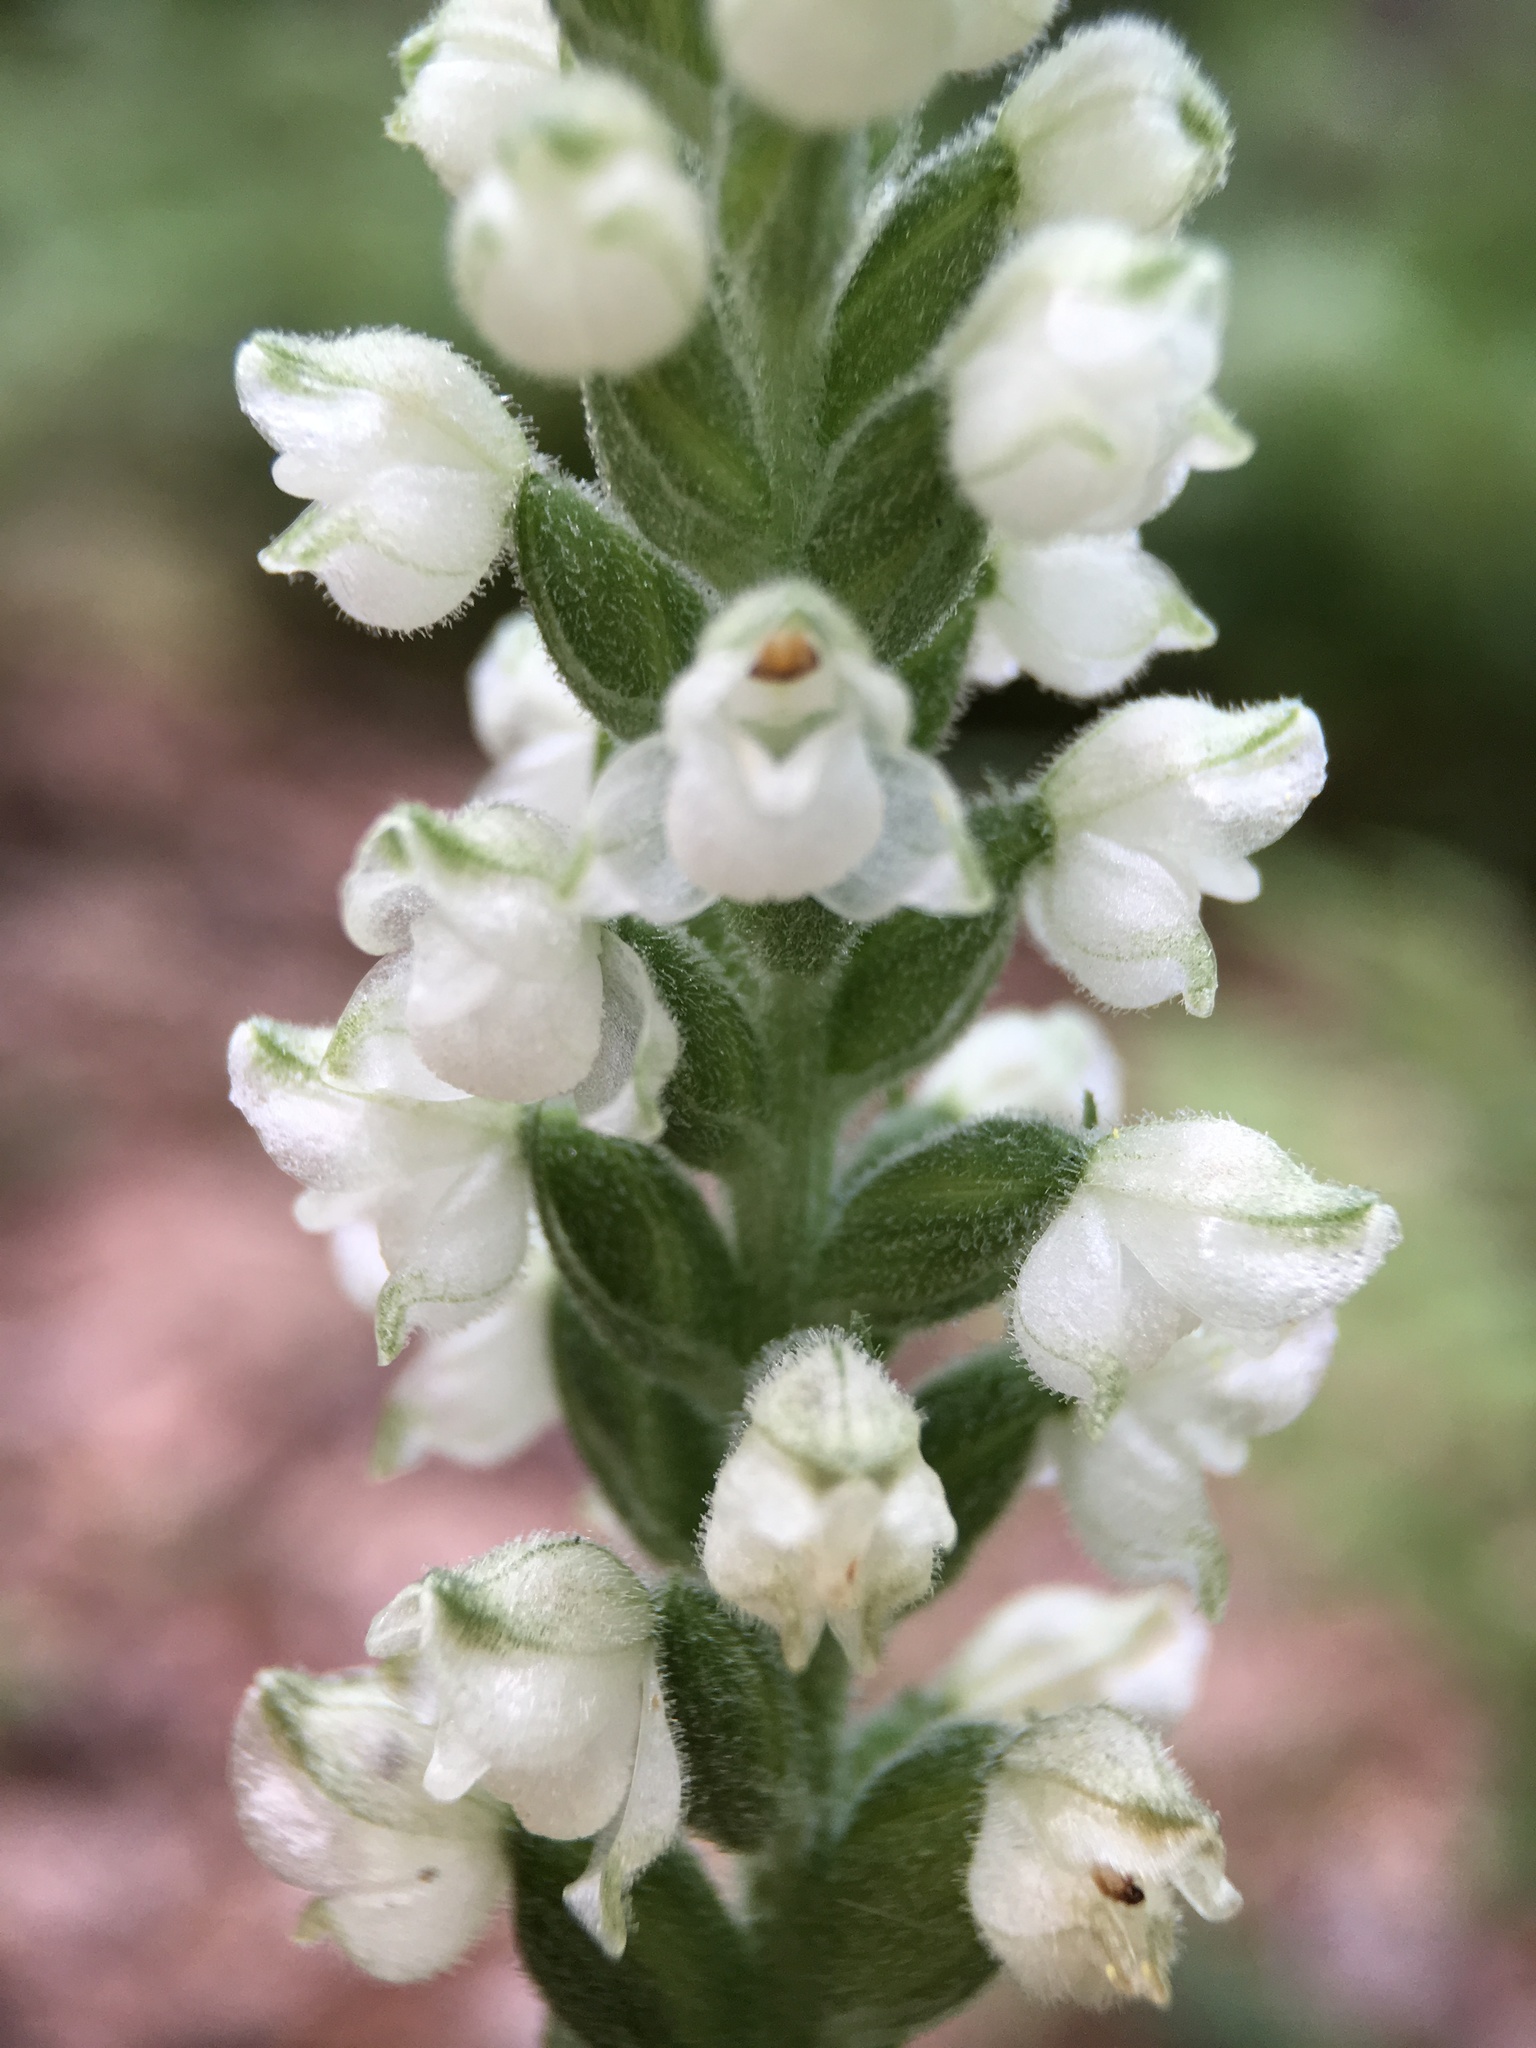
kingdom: Plantae
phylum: Tracheophyta
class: Liliopsida
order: Asparagales
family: Orchidaceae
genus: Goodyera
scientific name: Goodyera pubescens
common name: Downy rattlesnake-plantain
